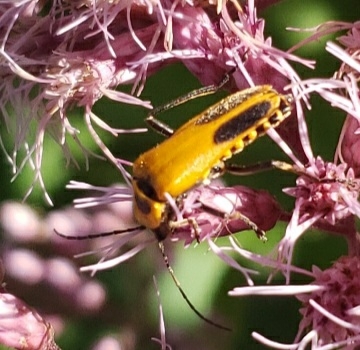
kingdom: Animalia
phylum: Arthropoda
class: Insecta
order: Coleoptera
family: Cantharidae
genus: Chauliognathus
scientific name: Chauliognathus pensylvanicus
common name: Goldenrod soldier beetle
